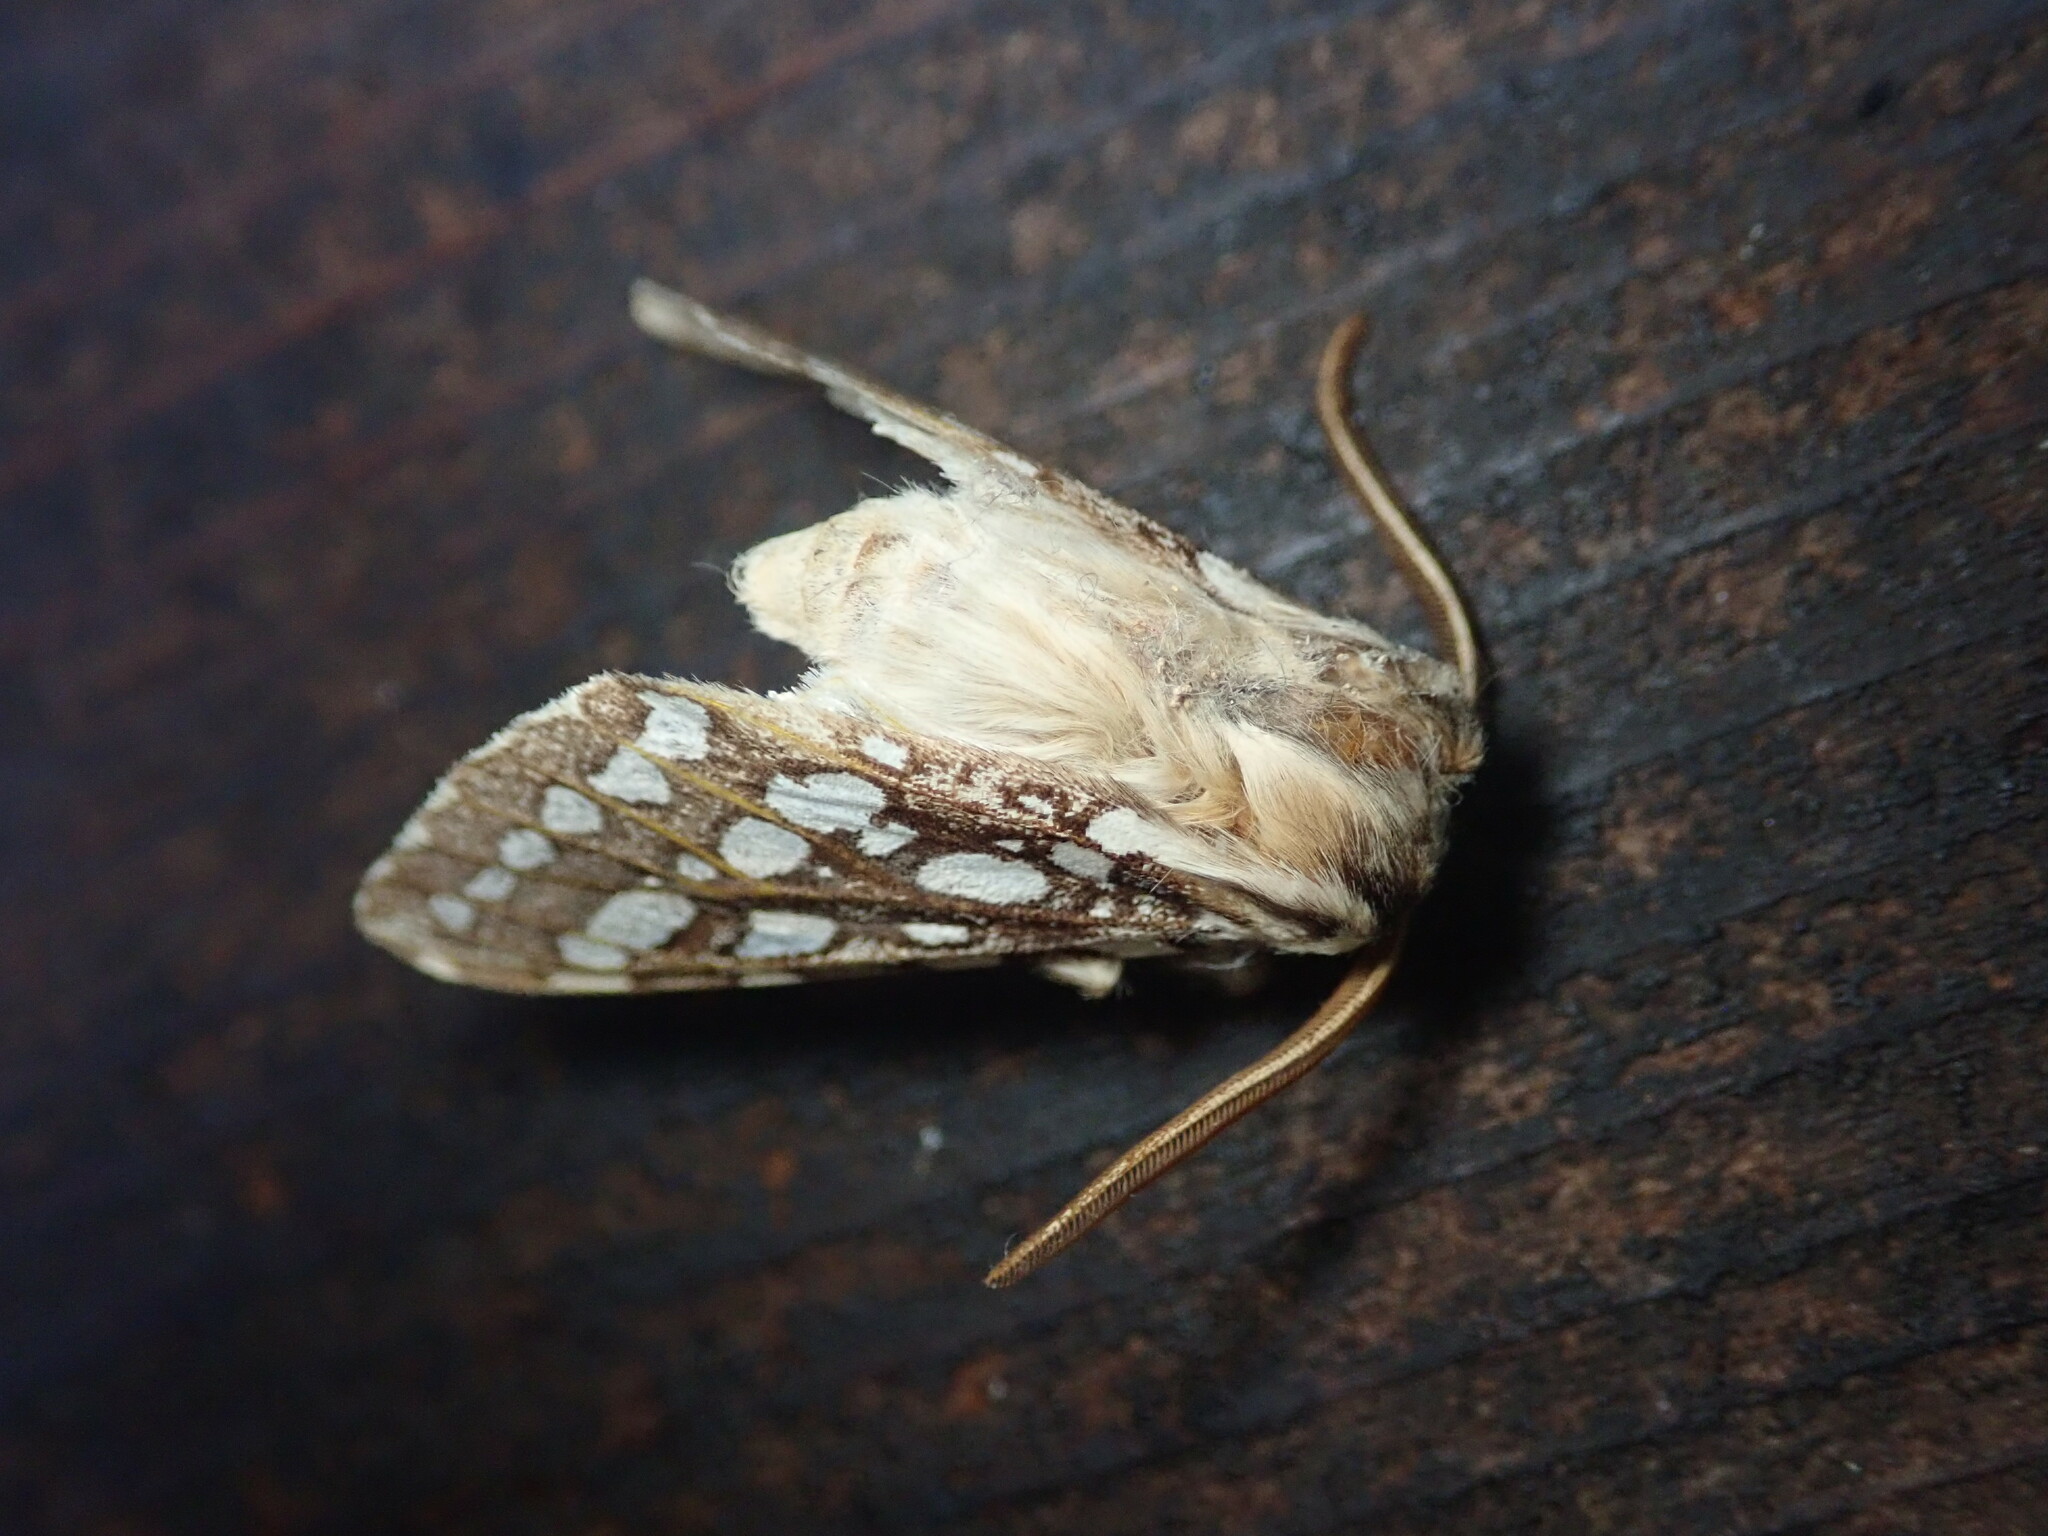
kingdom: Animalia
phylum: Arthropoda
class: Insecta
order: Lepidoptera
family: Erebidae
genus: Lophocampa
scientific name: Lophocampa argentata
